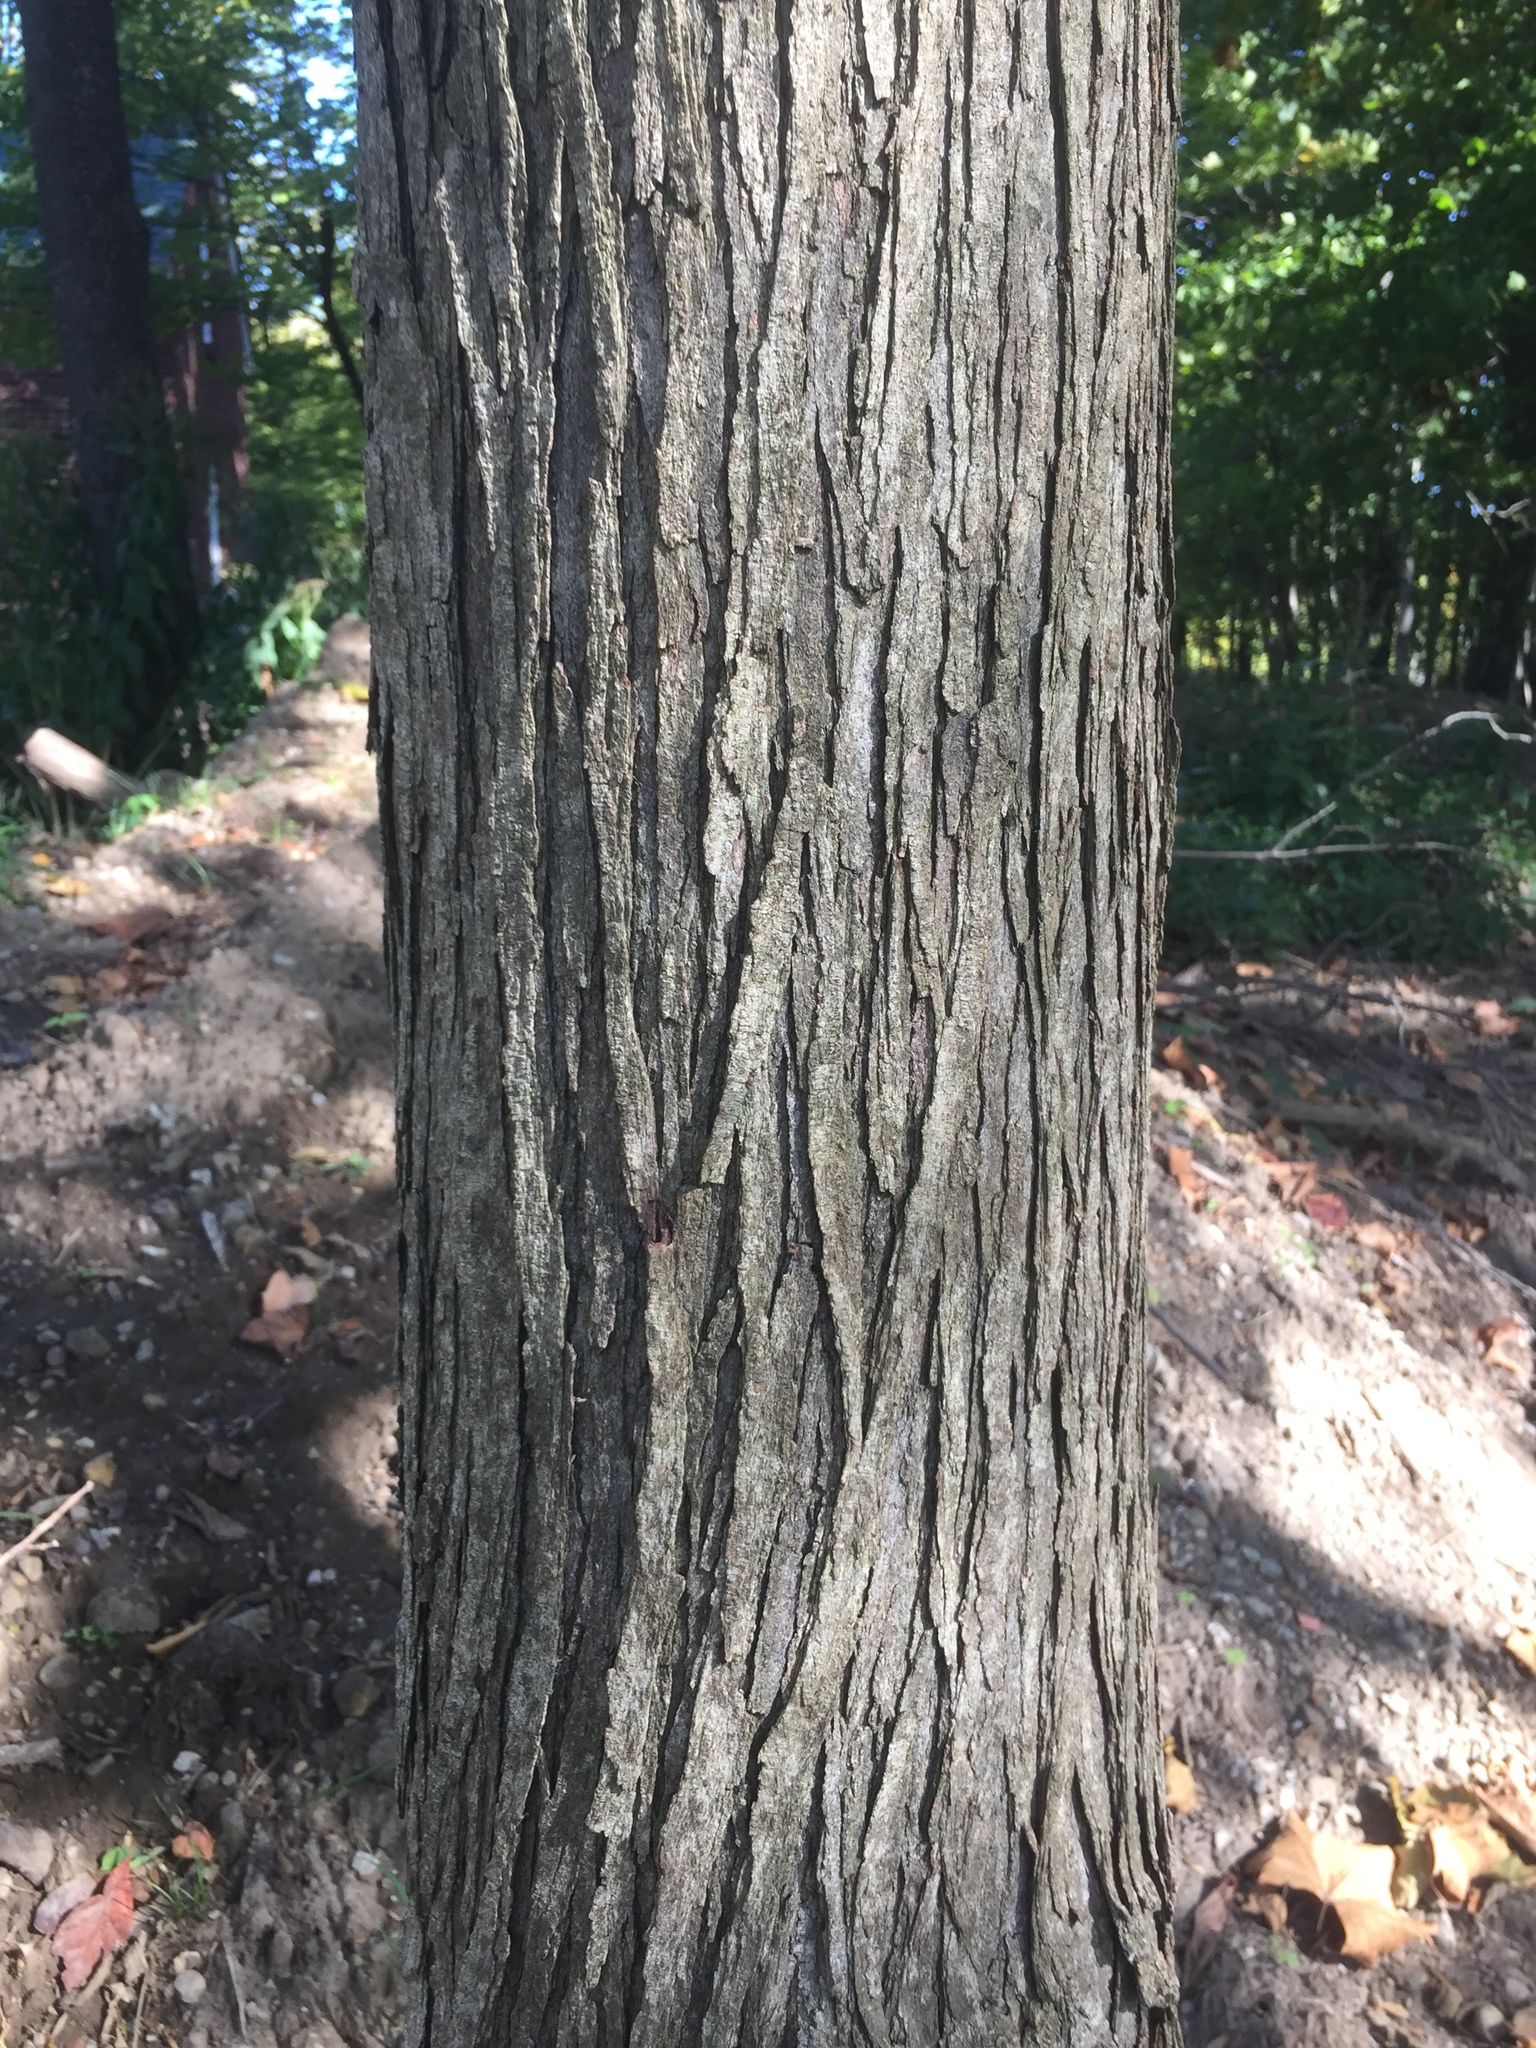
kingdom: Plantae
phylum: Tracheophyta
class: Magnoliopsida
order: Rosales
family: Moraceae
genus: Morus
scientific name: Morus rubra
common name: Red mulberry
